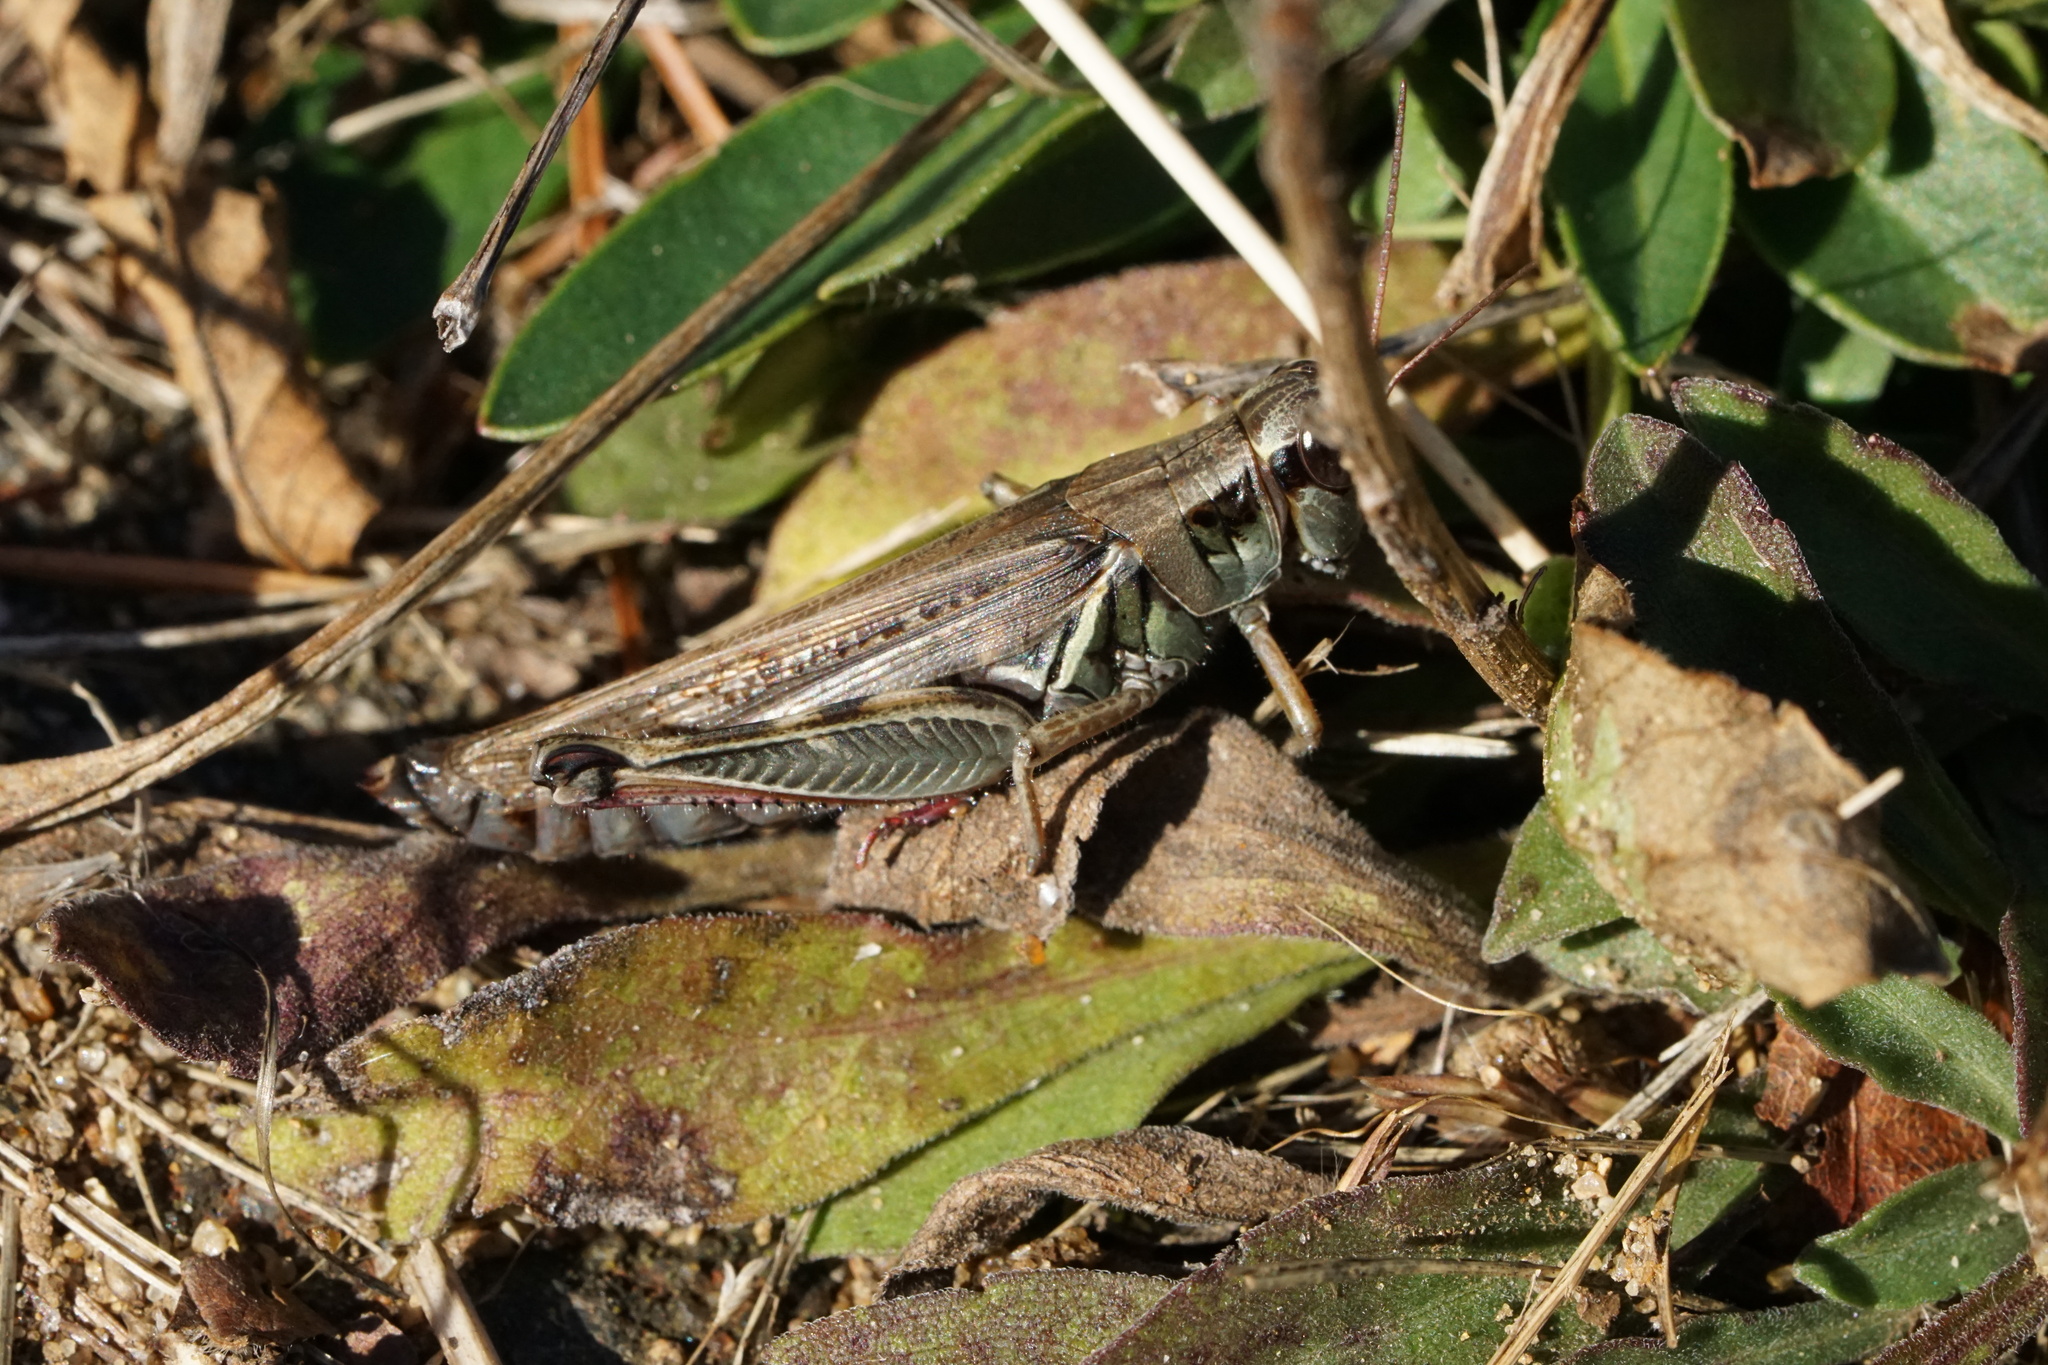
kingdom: Animalia
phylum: Arthropoda
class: Insecta
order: Orthoptera
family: Acrididae
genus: Melanoplus
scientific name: Melanoplus femurrubrum
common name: Red-legged grasshopper
